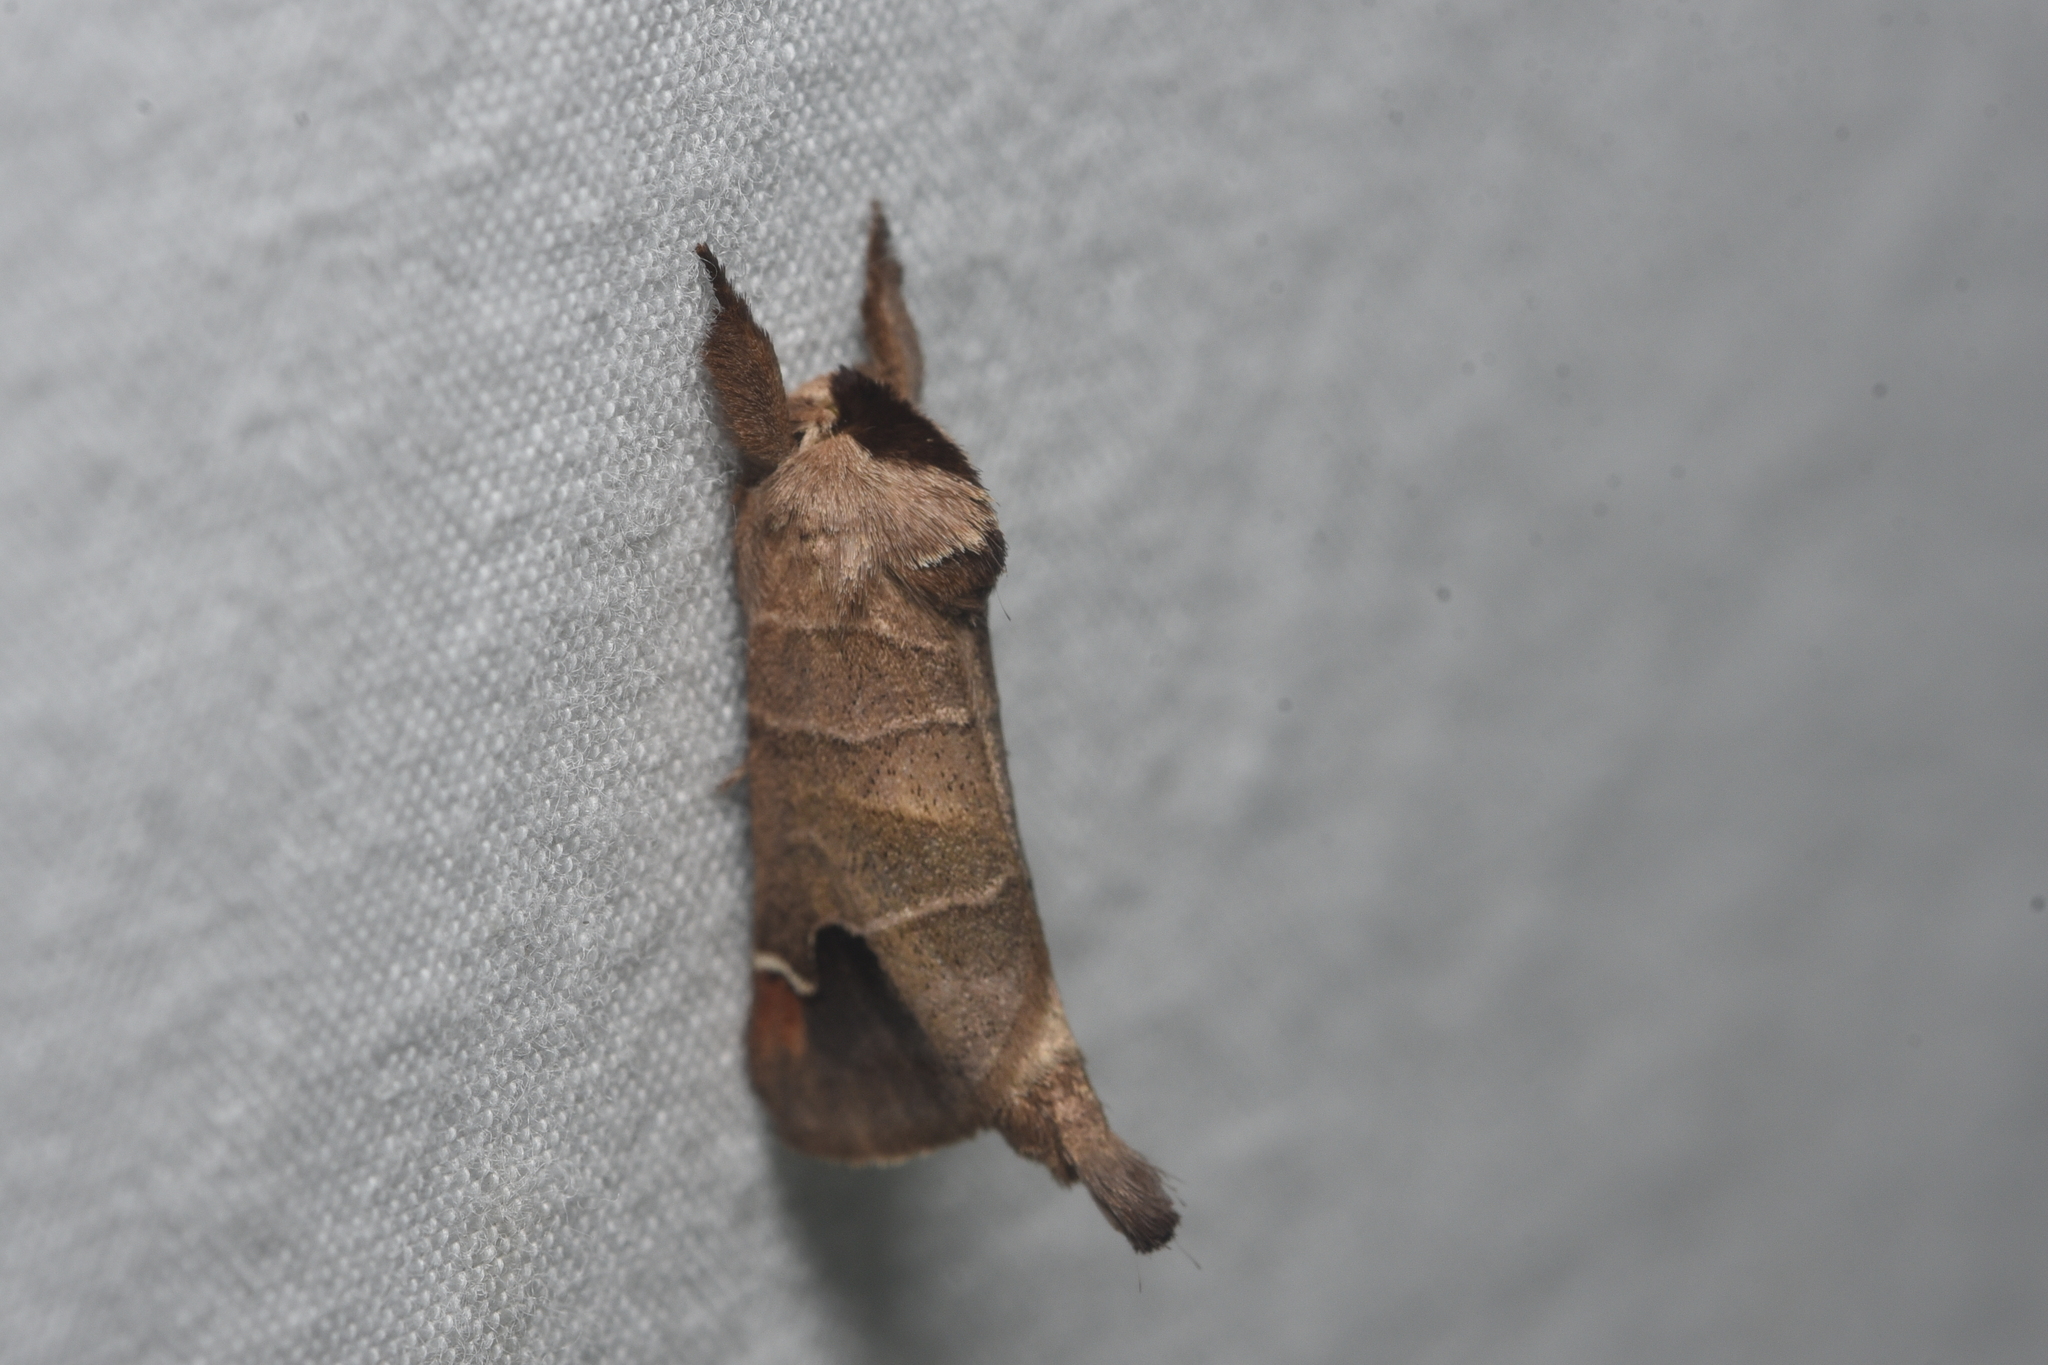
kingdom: Animalia
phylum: Arthropoda
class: Insecta
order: Lepidoptera
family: Notodontidae
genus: Clostera
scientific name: Clostera albosigma
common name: Sigmoid prominent
